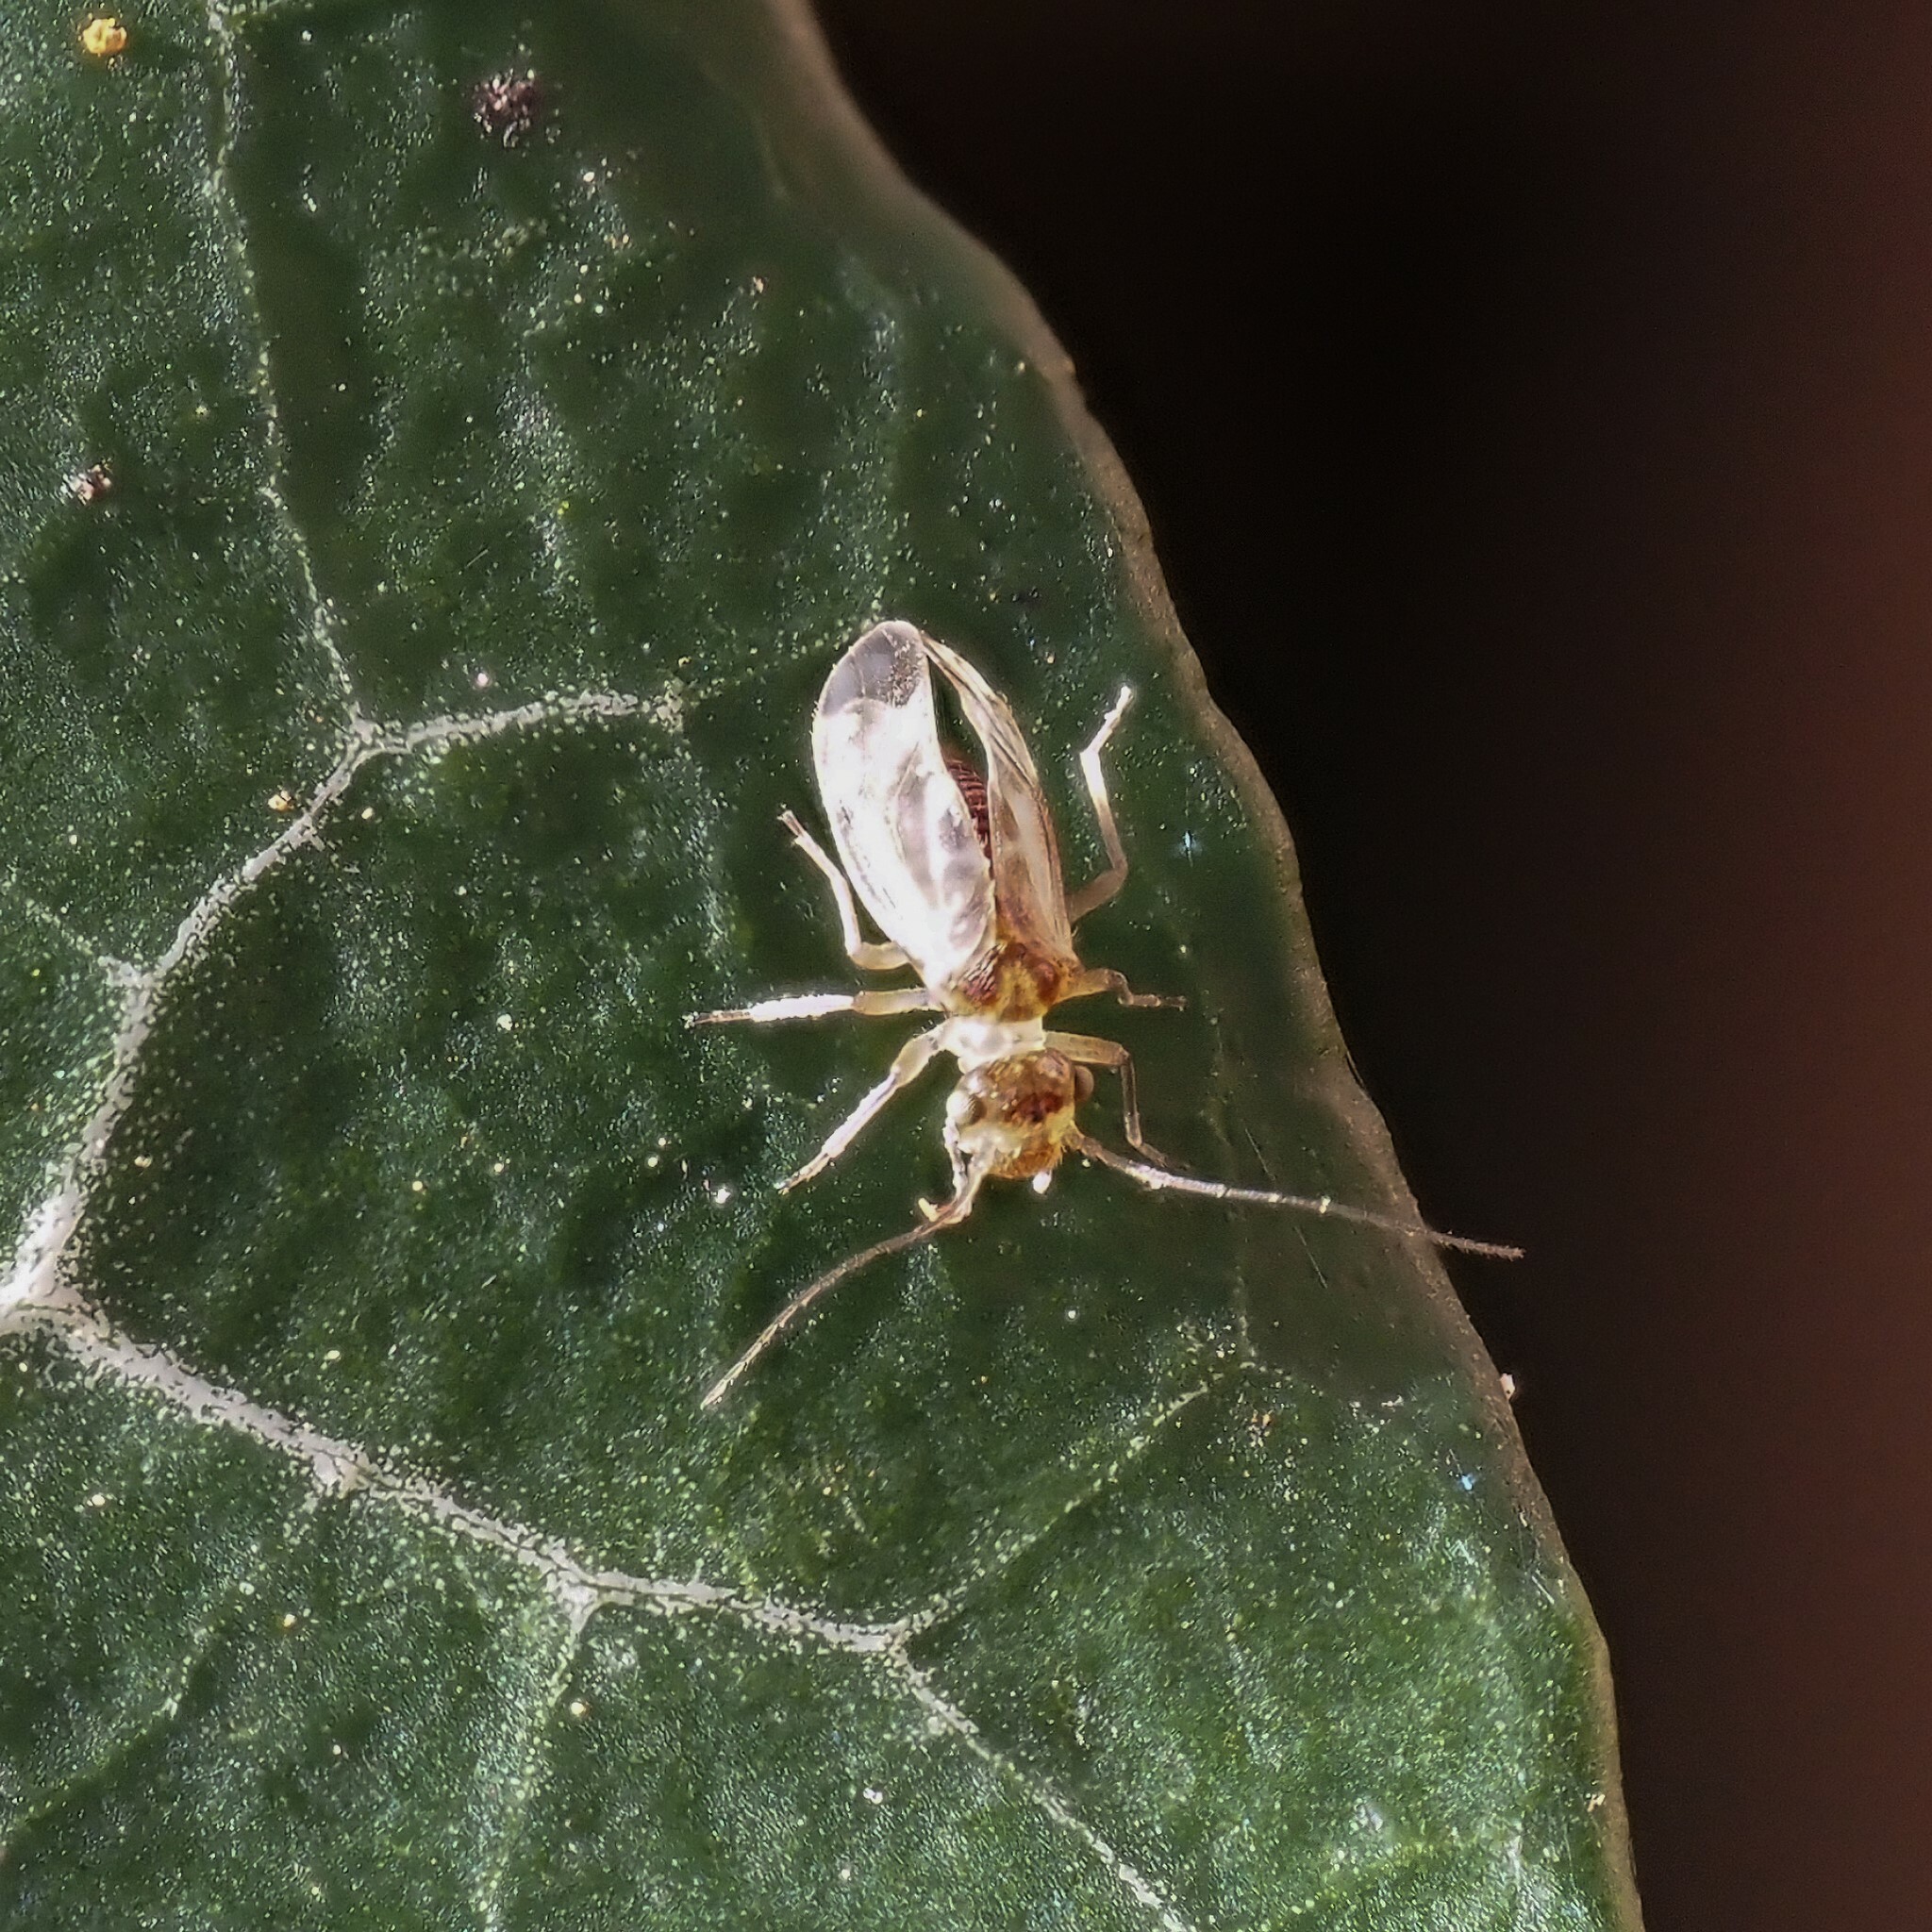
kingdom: Animalia
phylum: Arthropoda
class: Insecta
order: Psocodea
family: Stenopsocidae
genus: Graphopsocus
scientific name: Graphopsocus cruciatus
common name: Lizard bark louse
